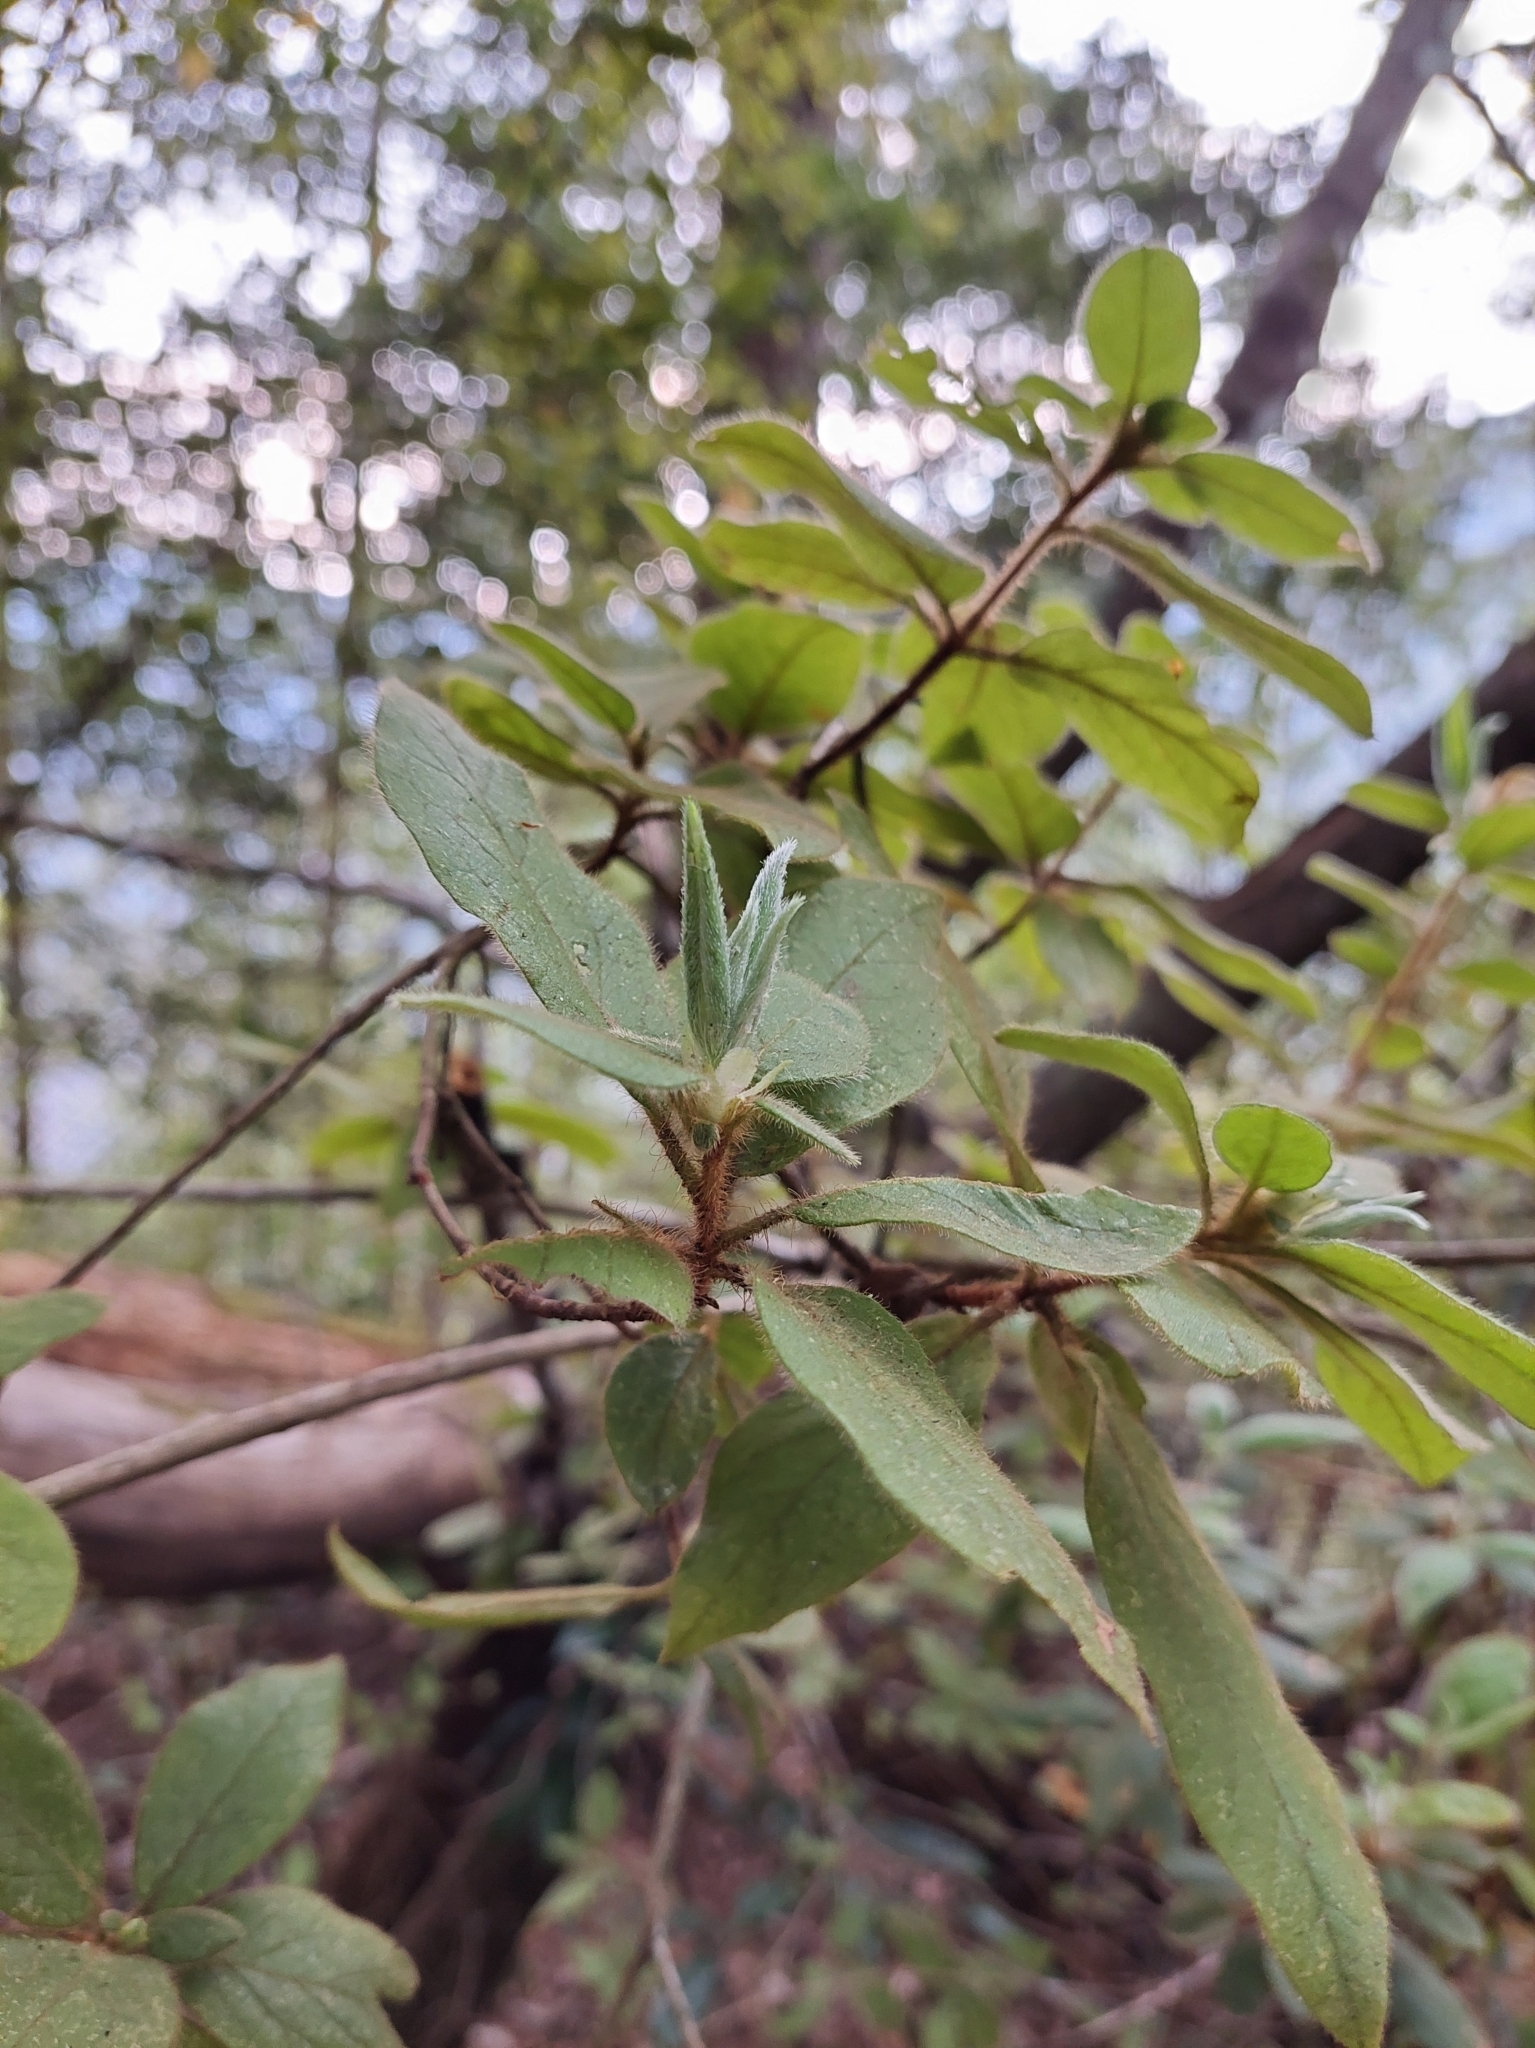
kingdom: Plantae
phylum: Tracheophyta
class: Magnoliopsida
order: Ericales
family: Ericaceae
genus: Rhododendron
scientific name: Rhododendron oldhamii
